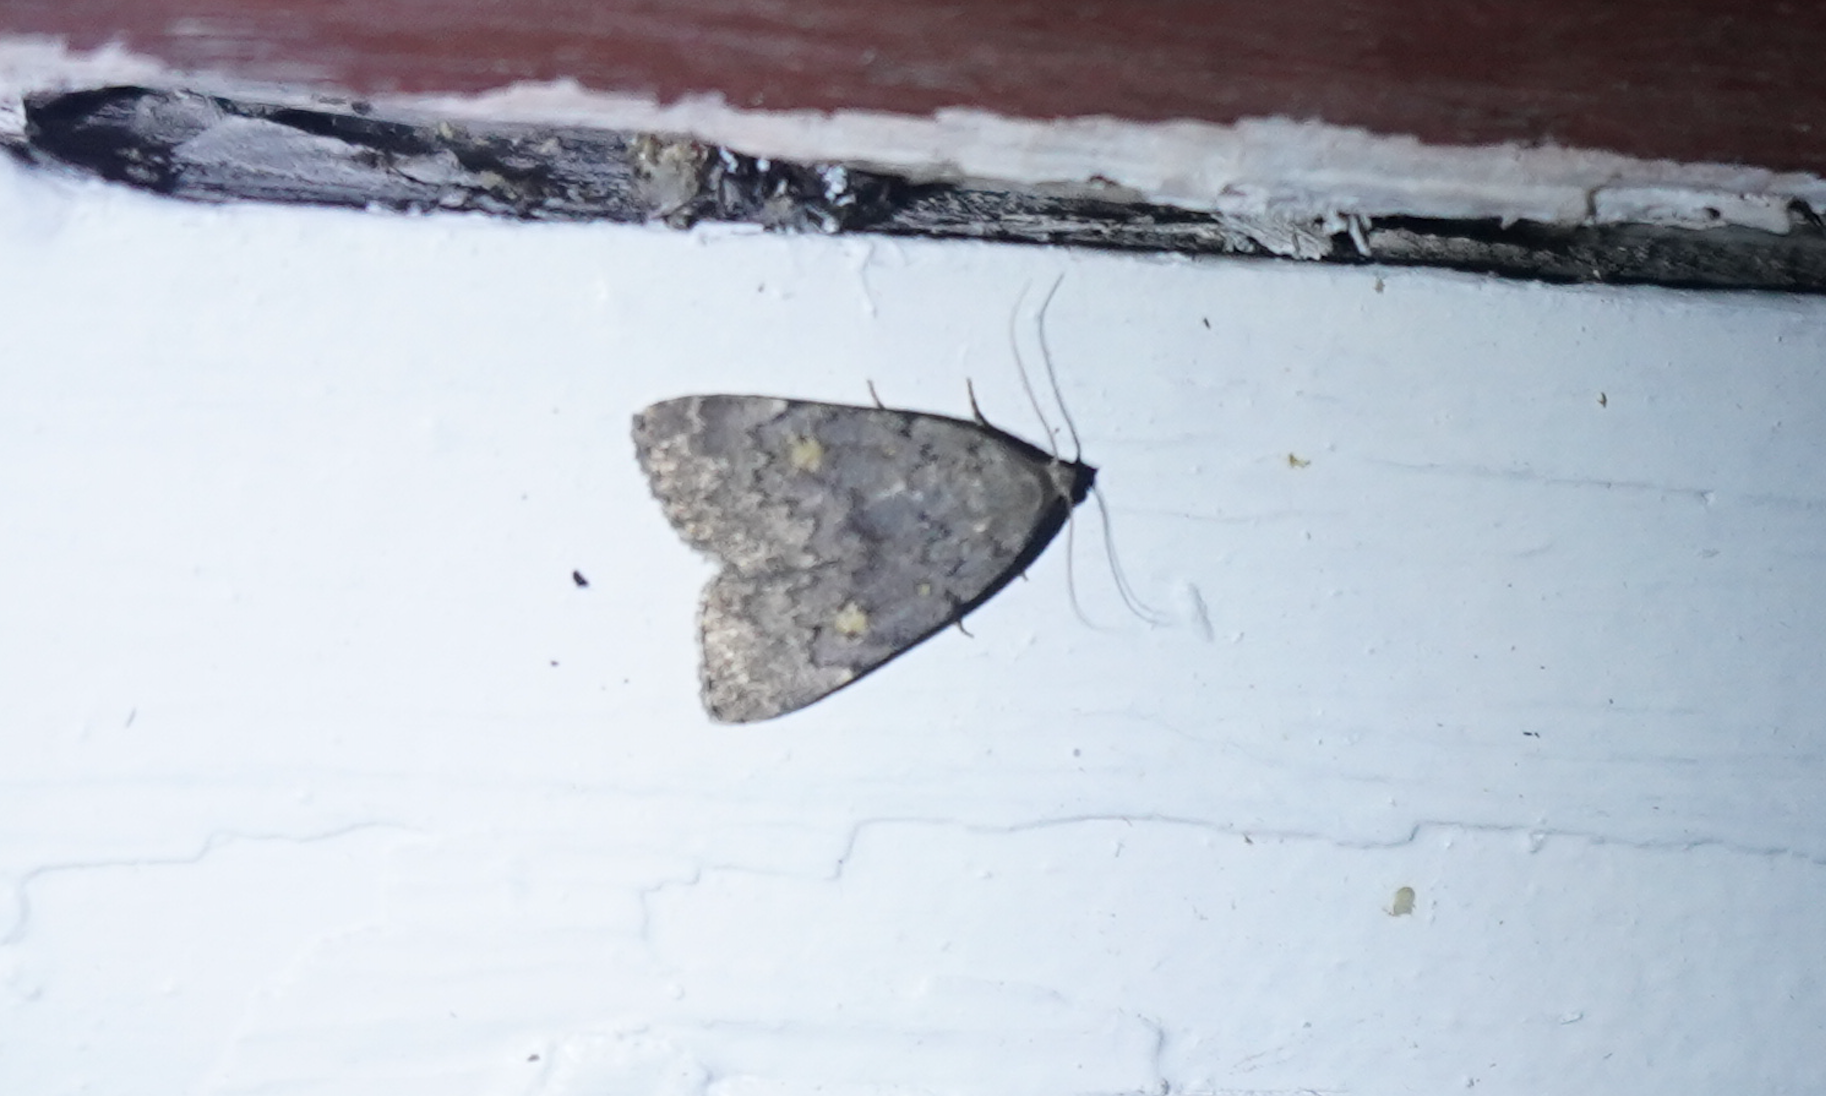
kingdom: Animalia
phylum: Arthropoda
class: Insecta
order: Lepidoptera
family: Erebidae
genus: Idia
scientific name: Idia aemula
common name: Common idia moth
